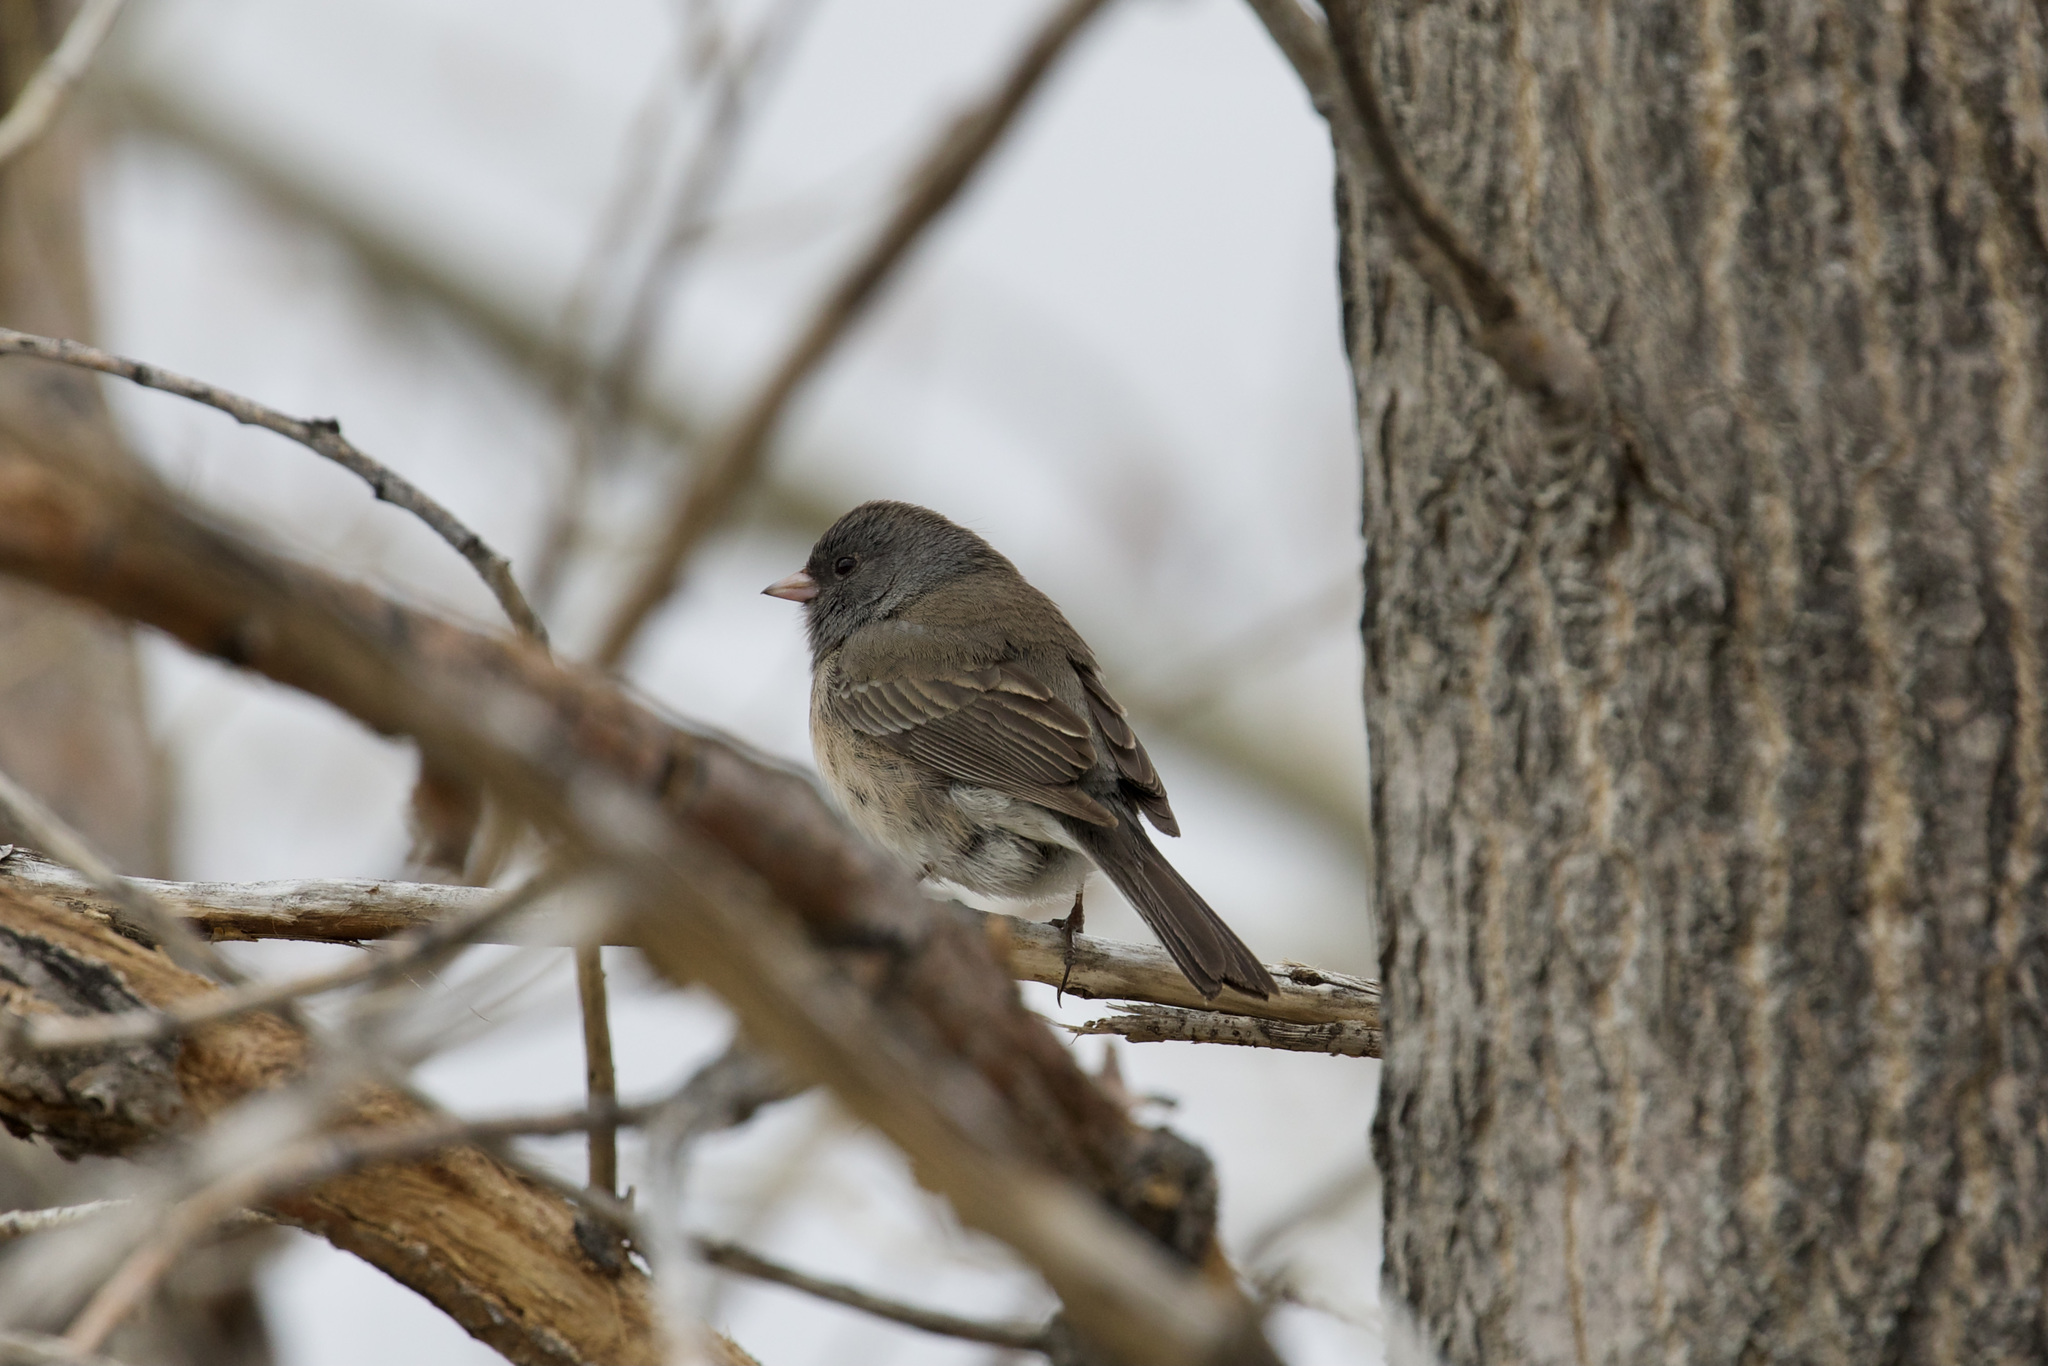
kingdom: Animalia
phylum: Chordata
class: Aves
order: Passeriformes
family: Passerellidae
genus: Junco
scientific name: Junco hyemalis
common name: Dark-eyed junco
